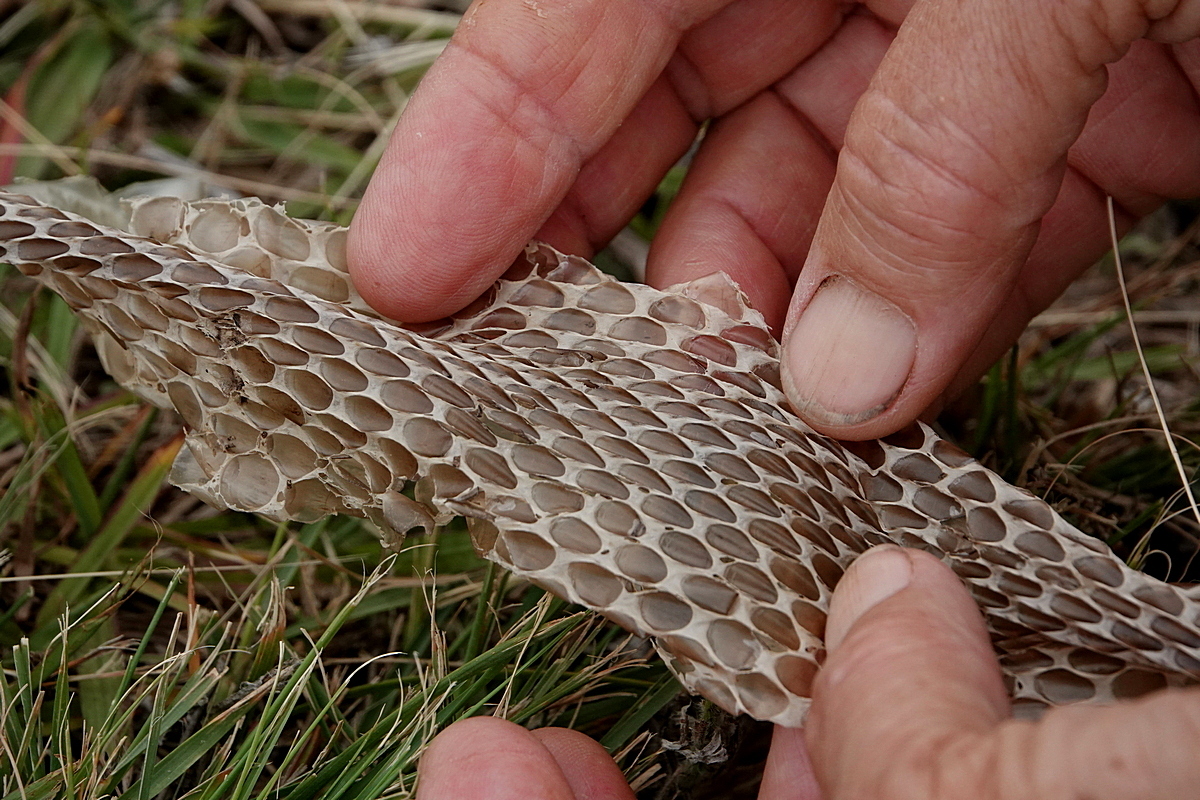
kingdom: Animalia
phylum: Chordata
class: Squamata
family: Elapidae
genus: Pseudonaja
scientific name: Pseudonaja textilis
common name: Eastern brown snake
